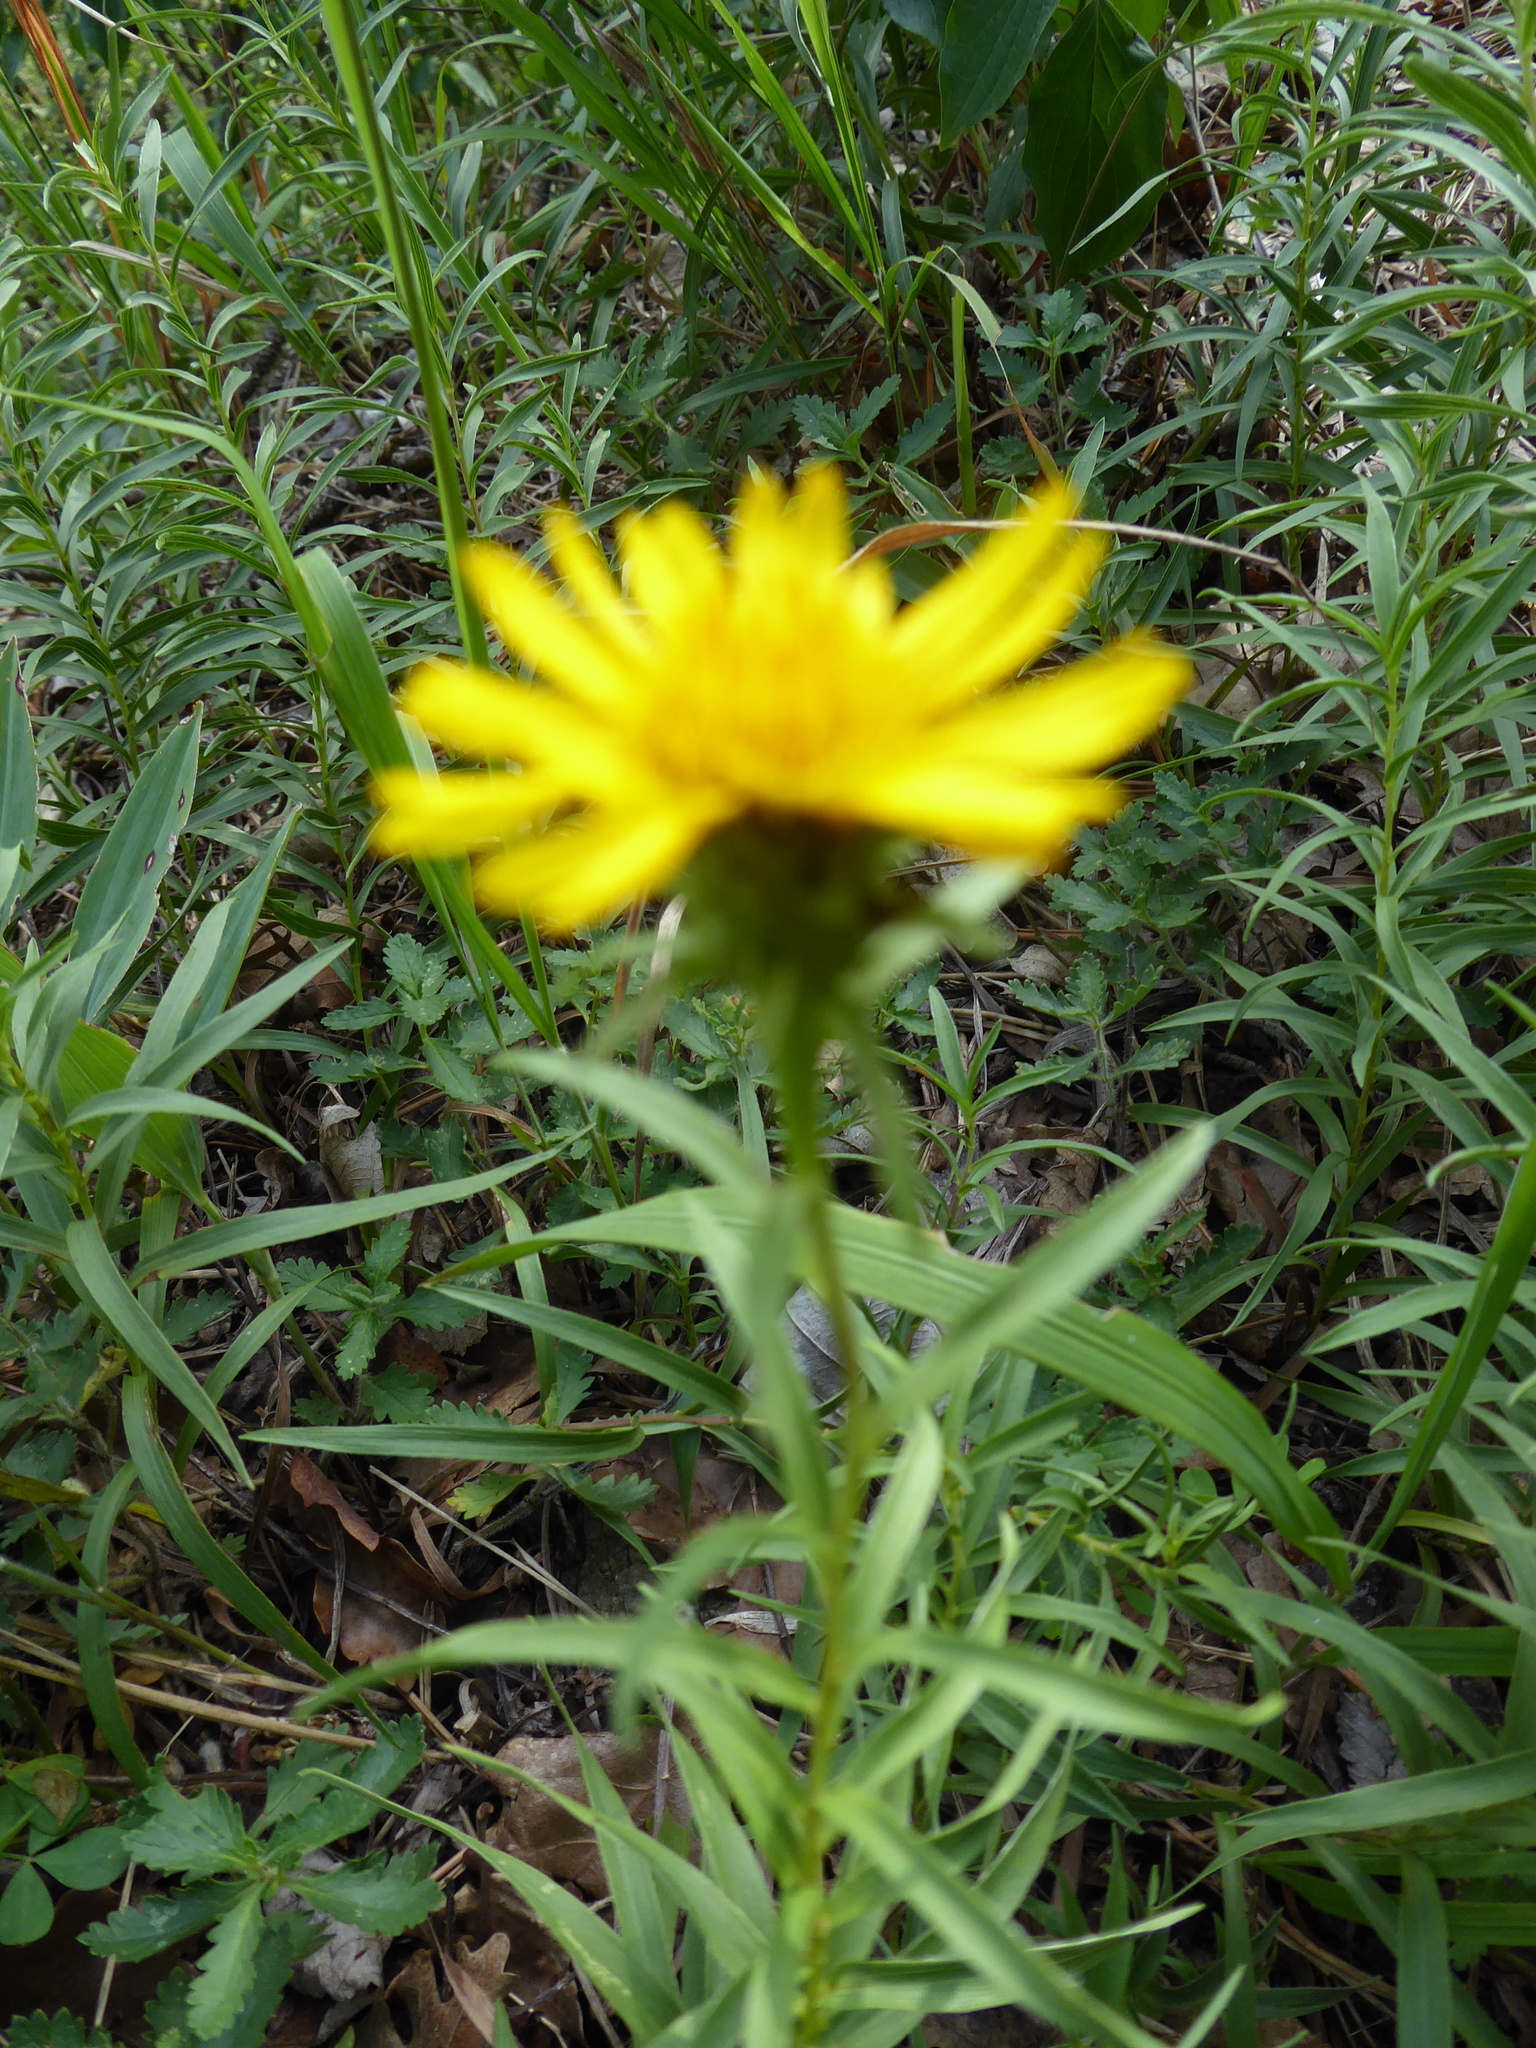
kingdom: Plantae
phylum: Tracheophyta
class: Magnoliopsida
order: Asterales
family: Asteraceae
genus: Pentanema
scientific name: Pentanema ensifolium
